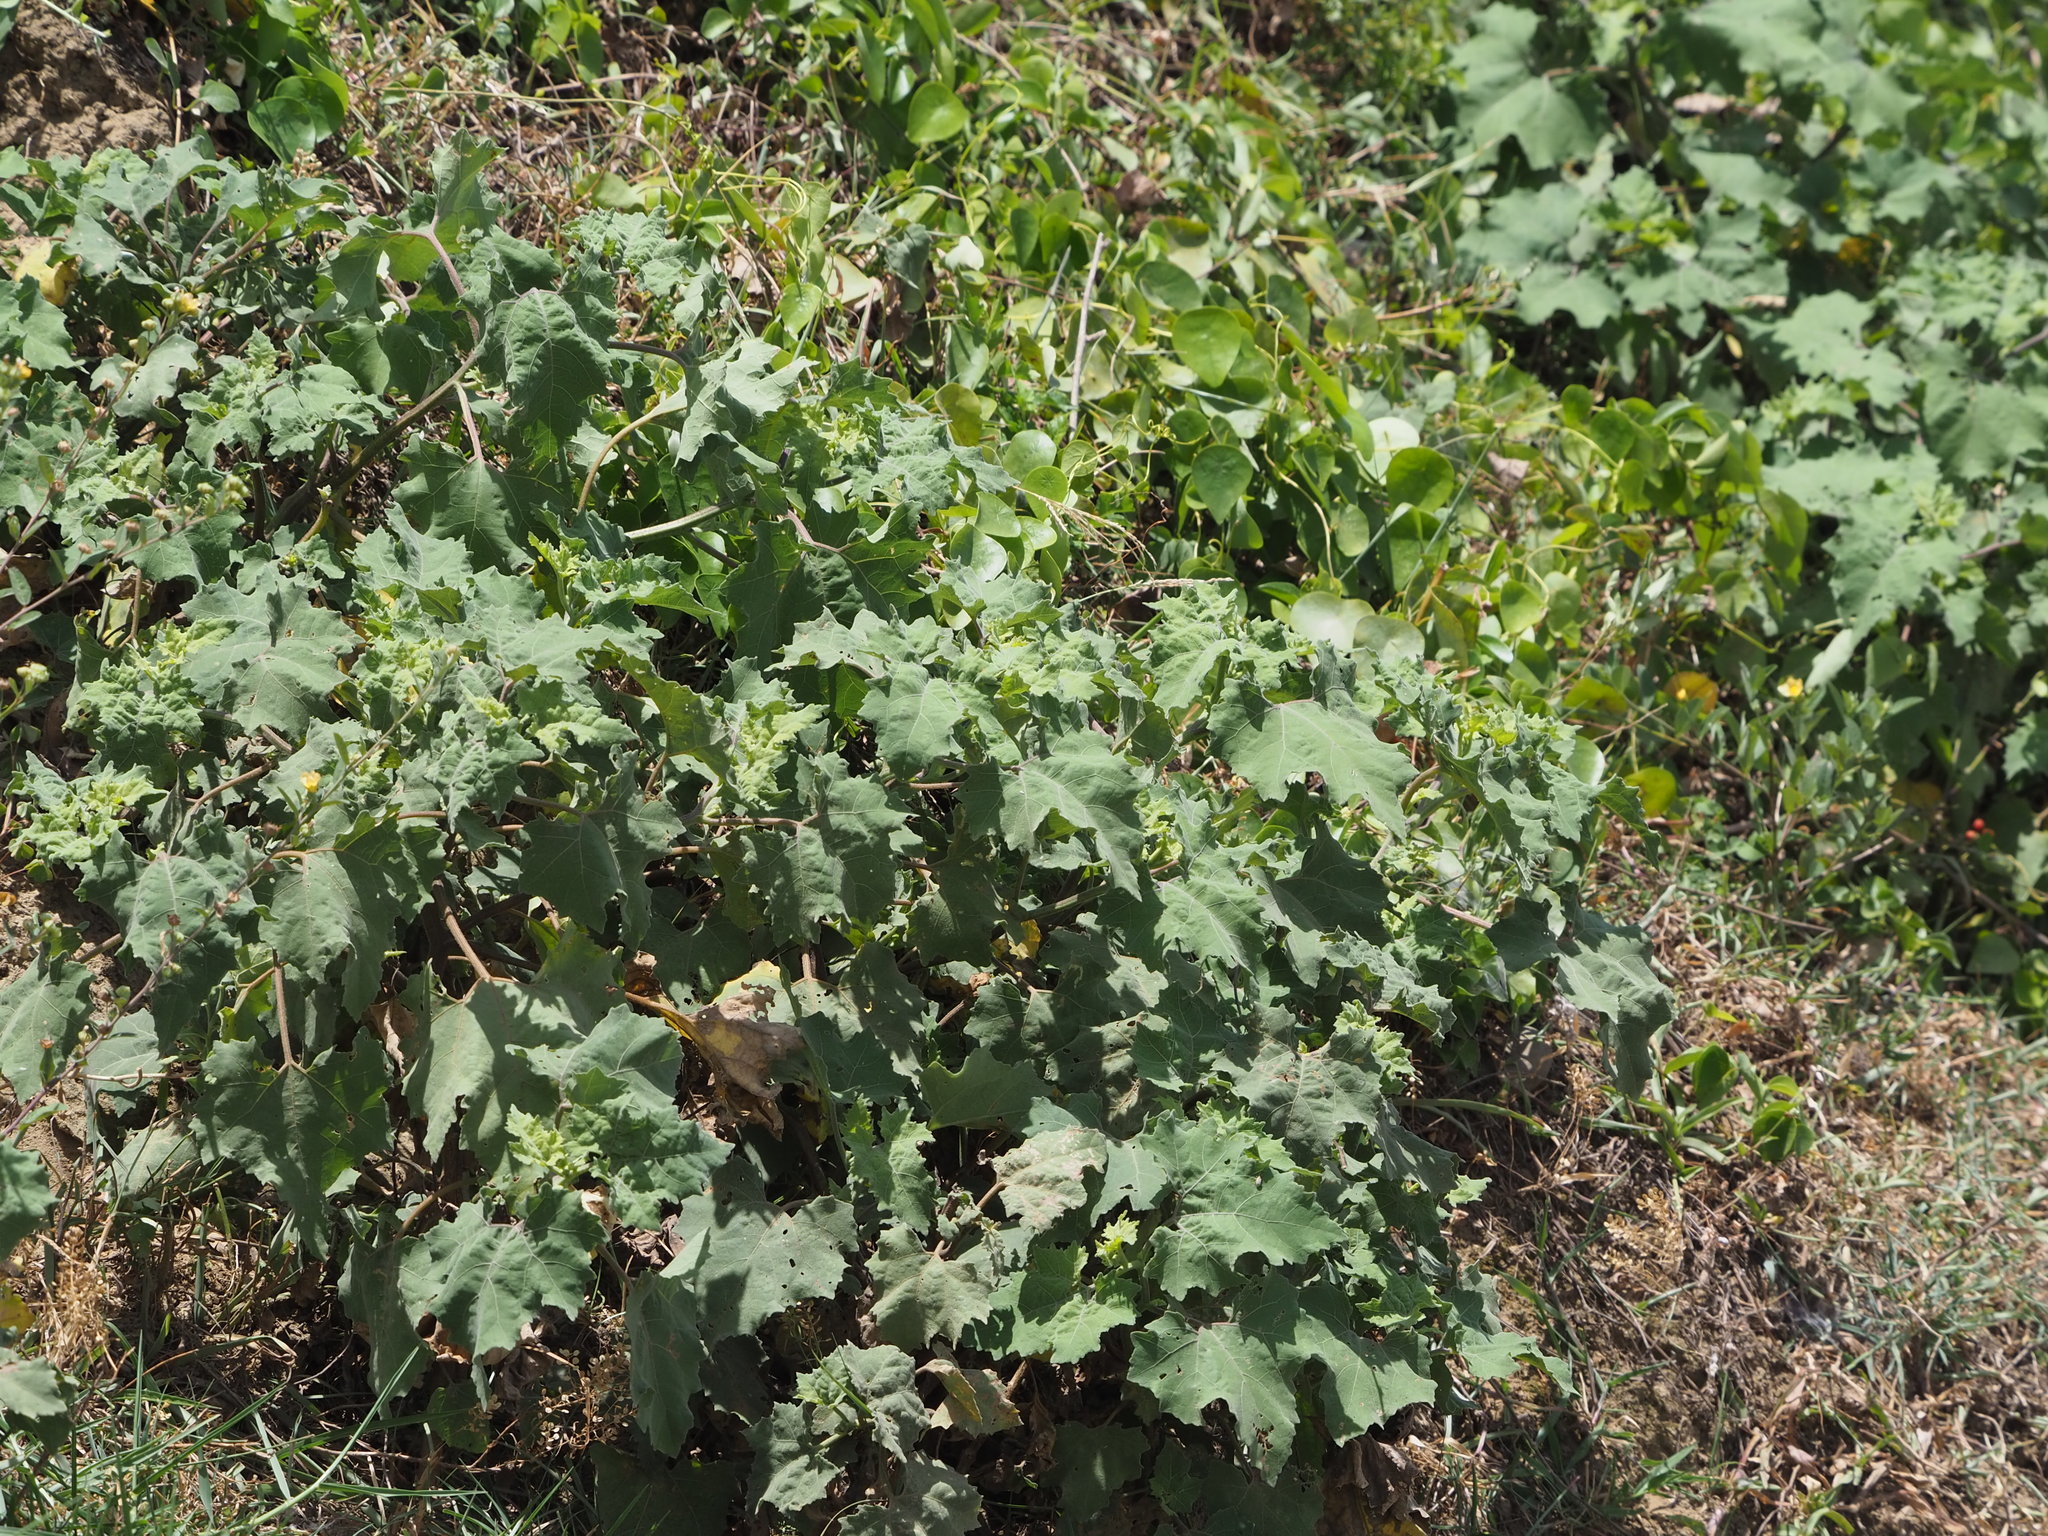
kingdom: Plantae
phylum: Tracheophyta
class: Magnoliopsida
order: Asterales
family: Asteraceae
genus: Xanthium
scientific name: Xanthium strumarium
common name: Rough cocklebur
